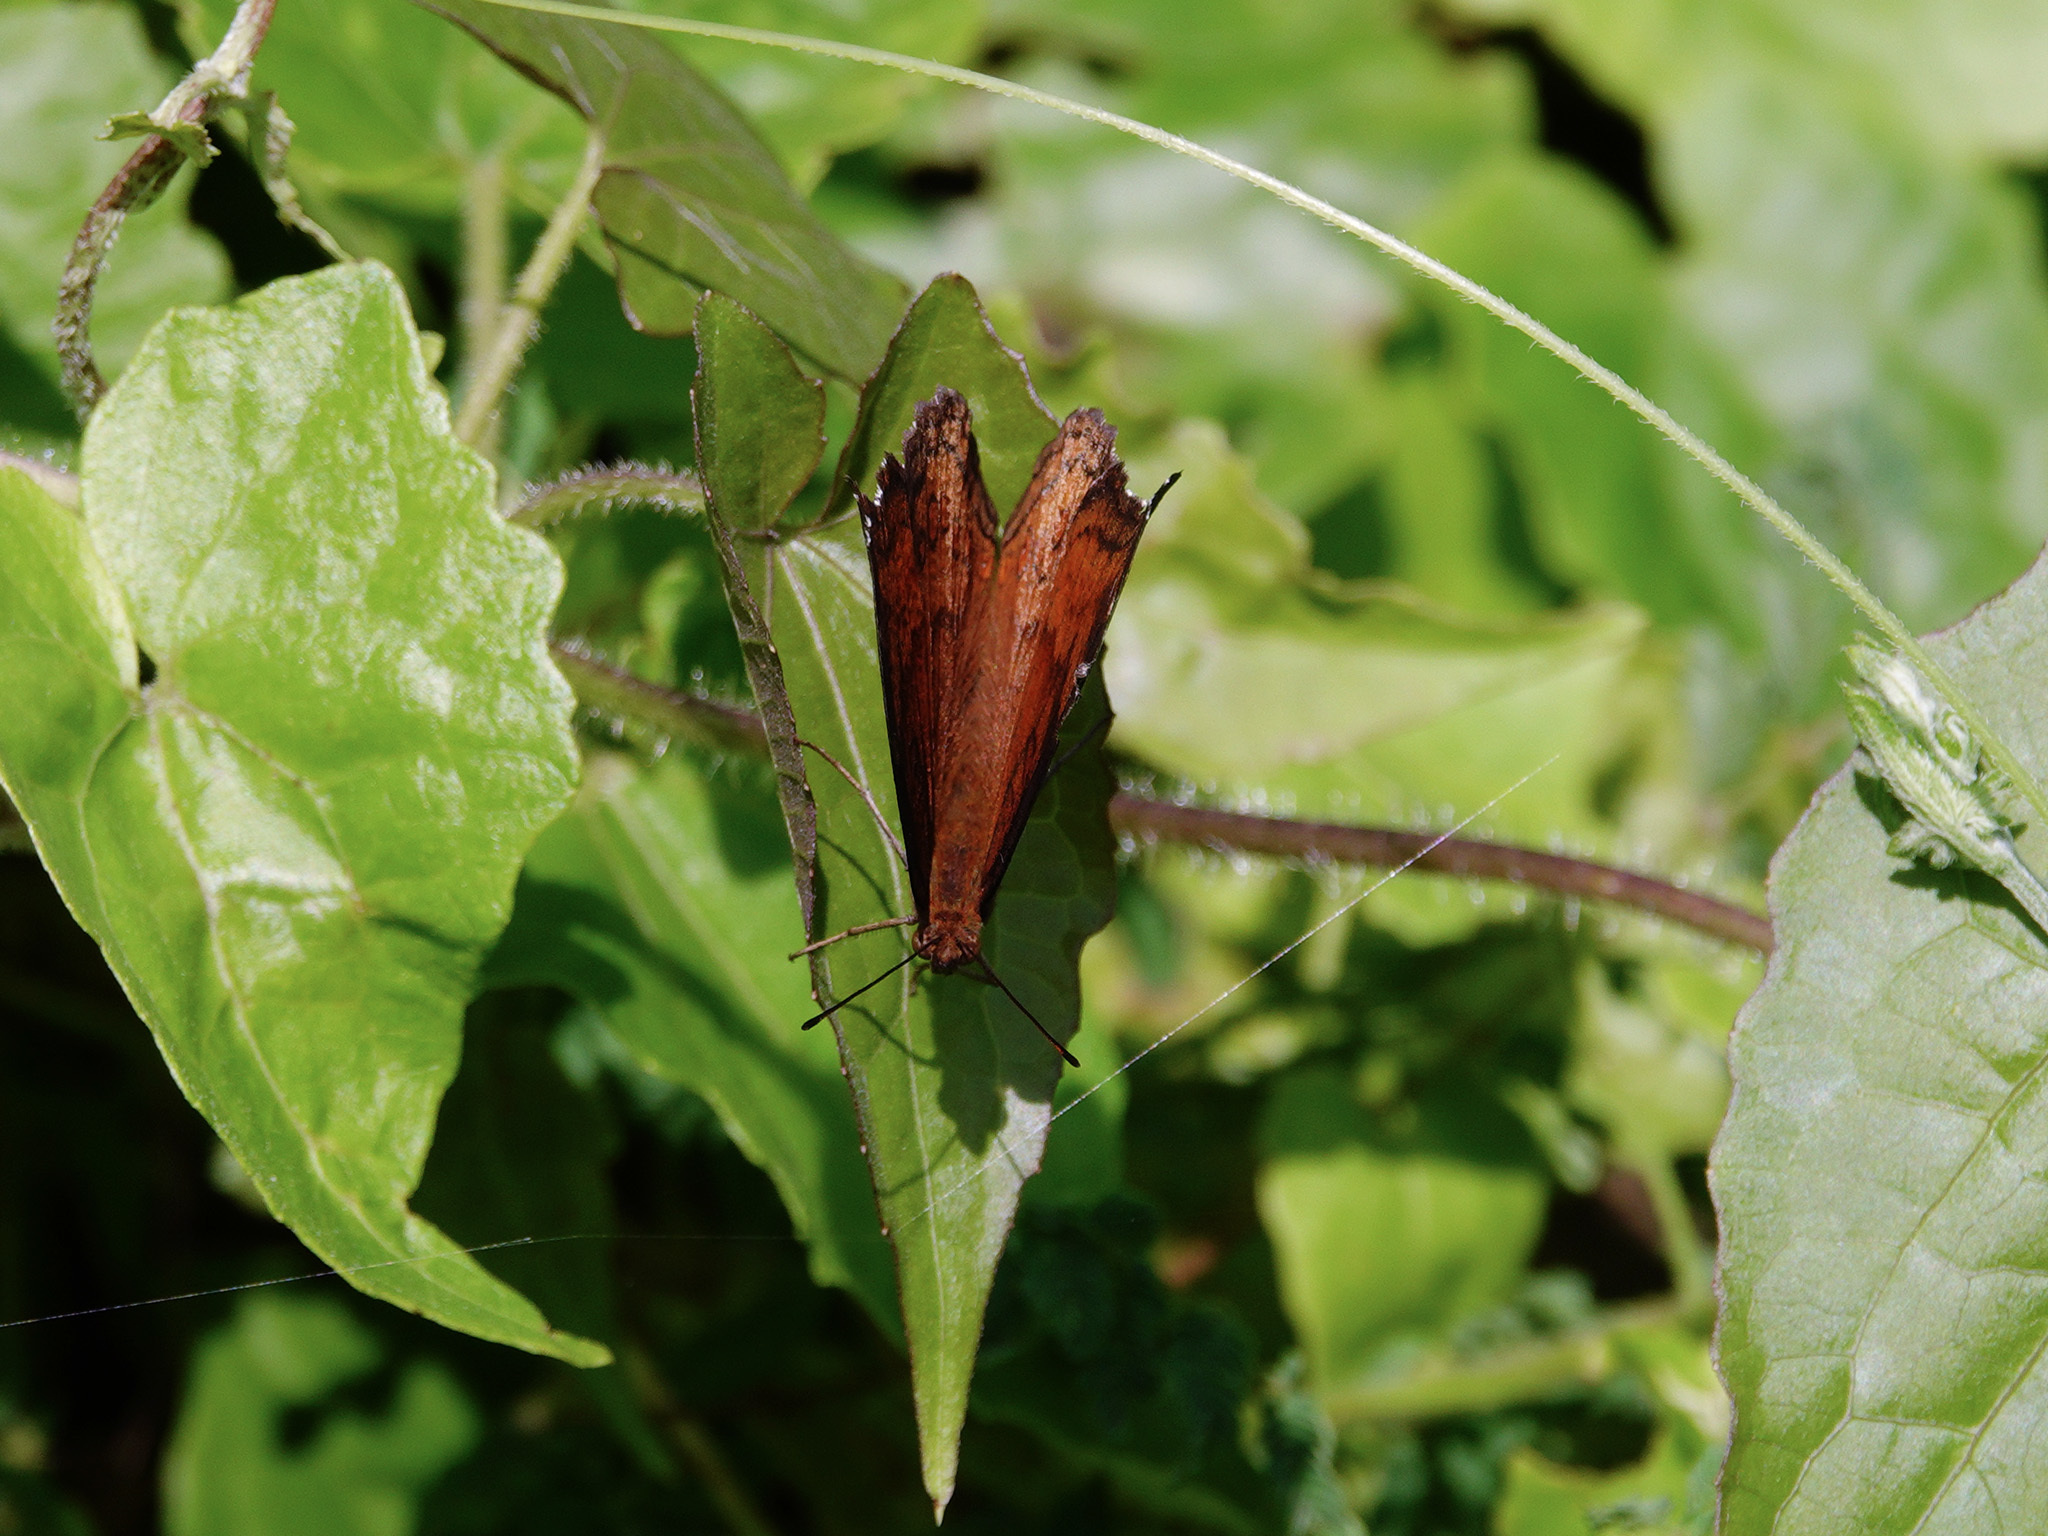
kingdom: Animalia
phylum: Arthropoda
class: Insecta
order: Lepidoptera
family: Nymphalidae
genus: Junonia
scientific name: Junonia hedonia
